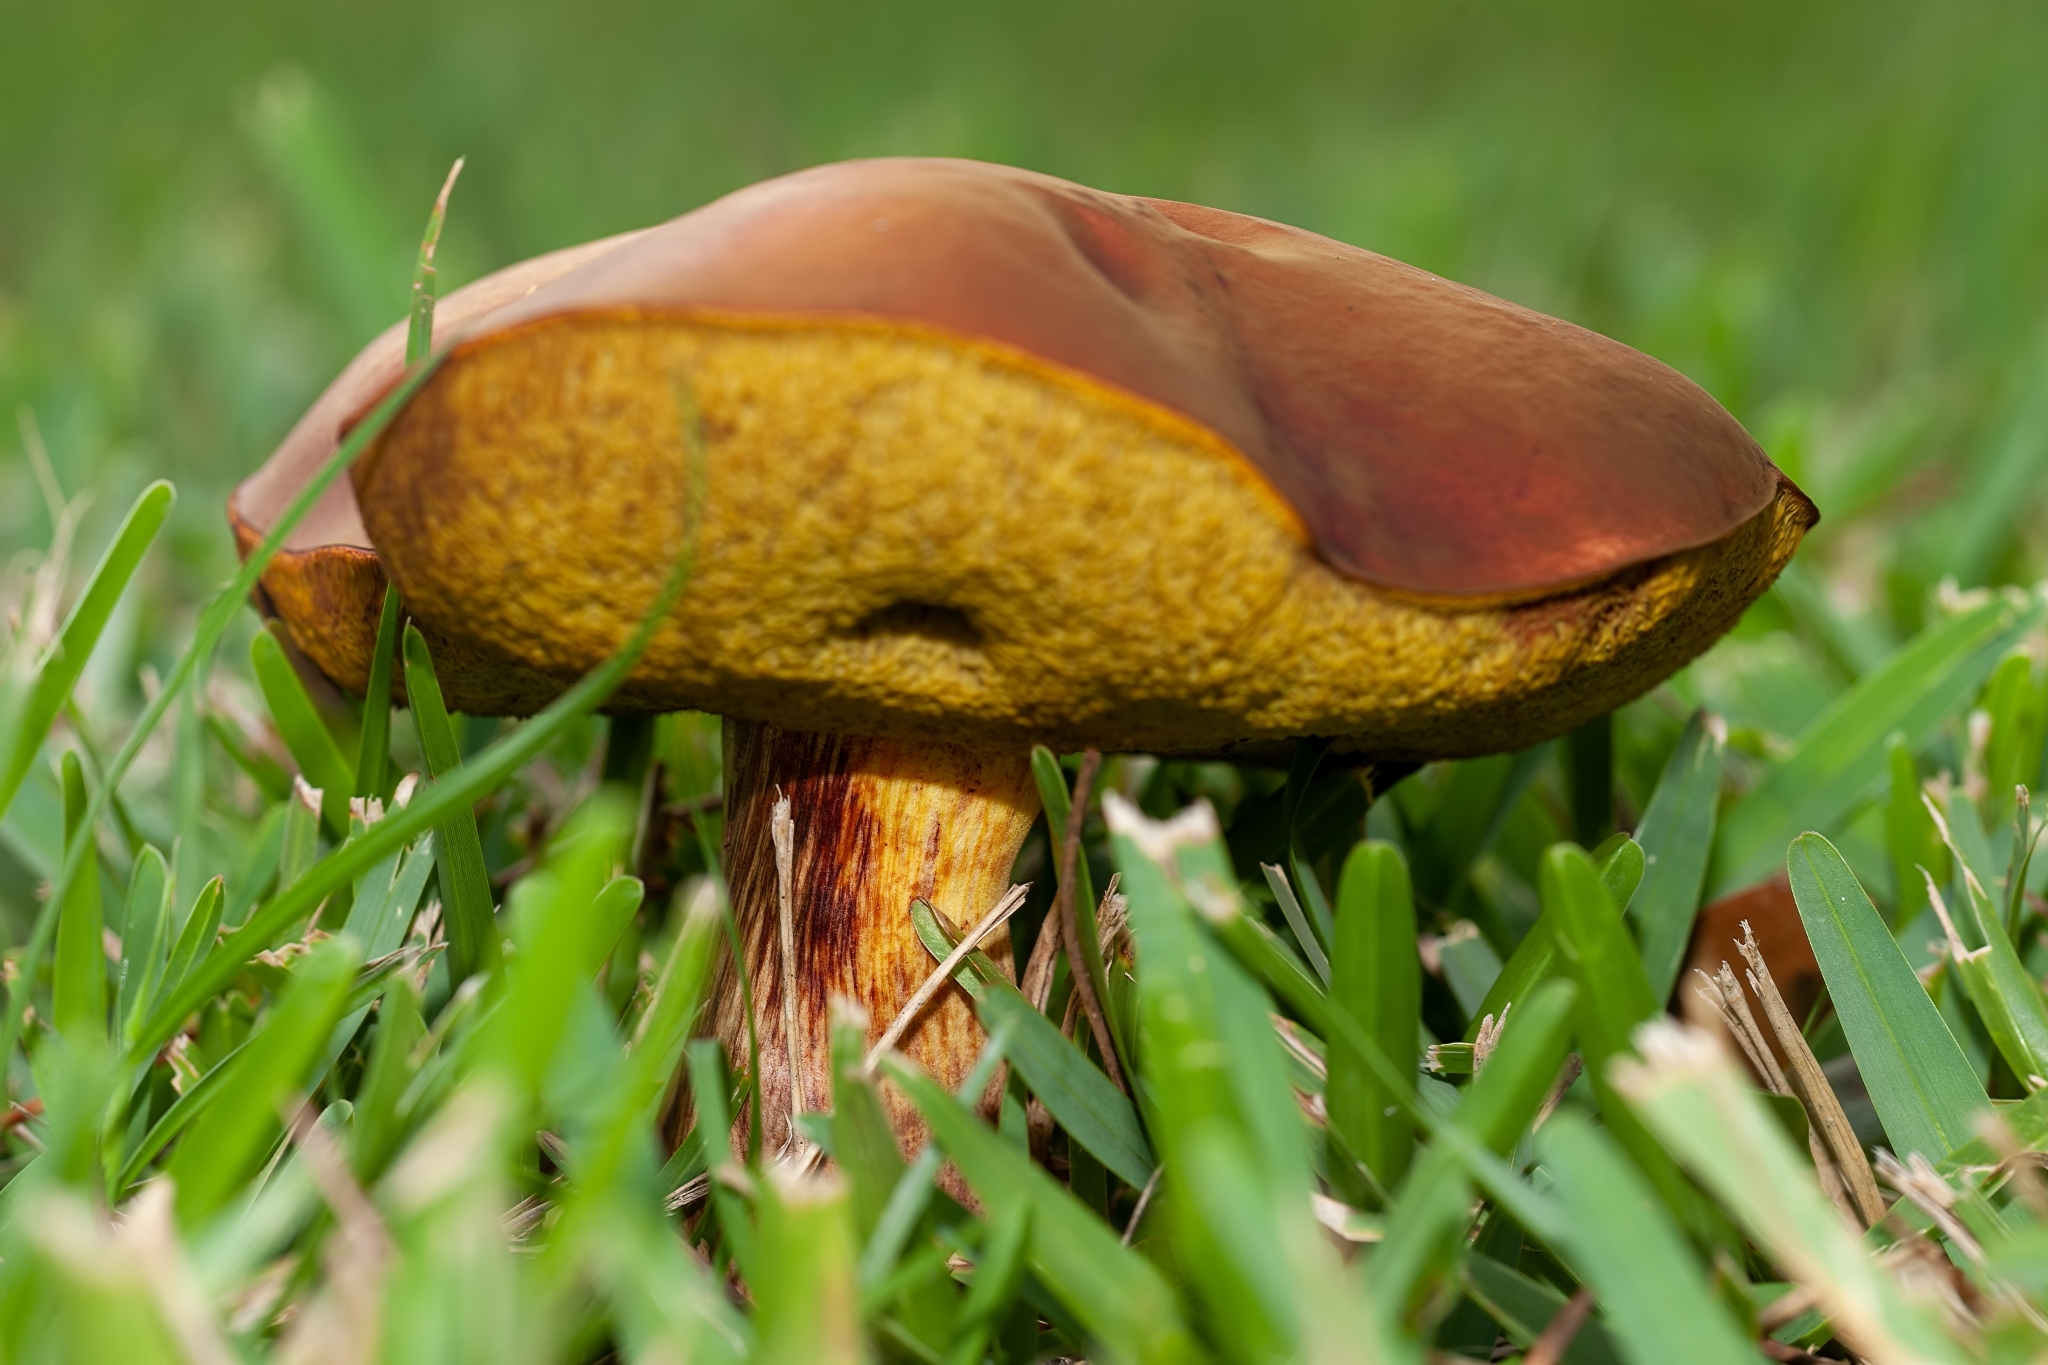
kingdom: Fungi
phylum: Basidiomycota
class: Agaricomycetes
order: Boletales
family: Boletaceae
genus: Pulchroboletus
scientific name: Pulchroboletus rubricitrinus
